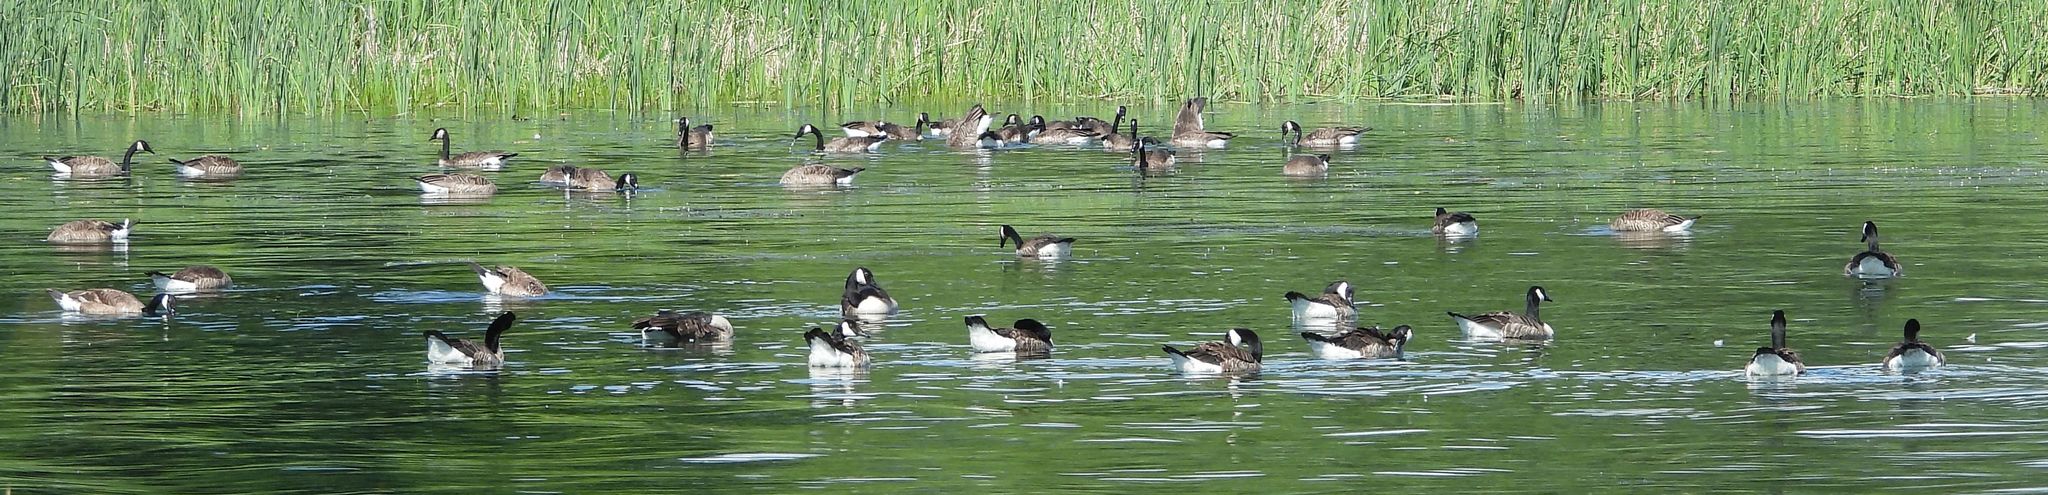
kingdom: Animalia
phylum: Chordata
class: Aves
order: Anseriformes
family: Anatidae
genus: Branta
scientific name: Branta canadensis
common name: Canada goose
